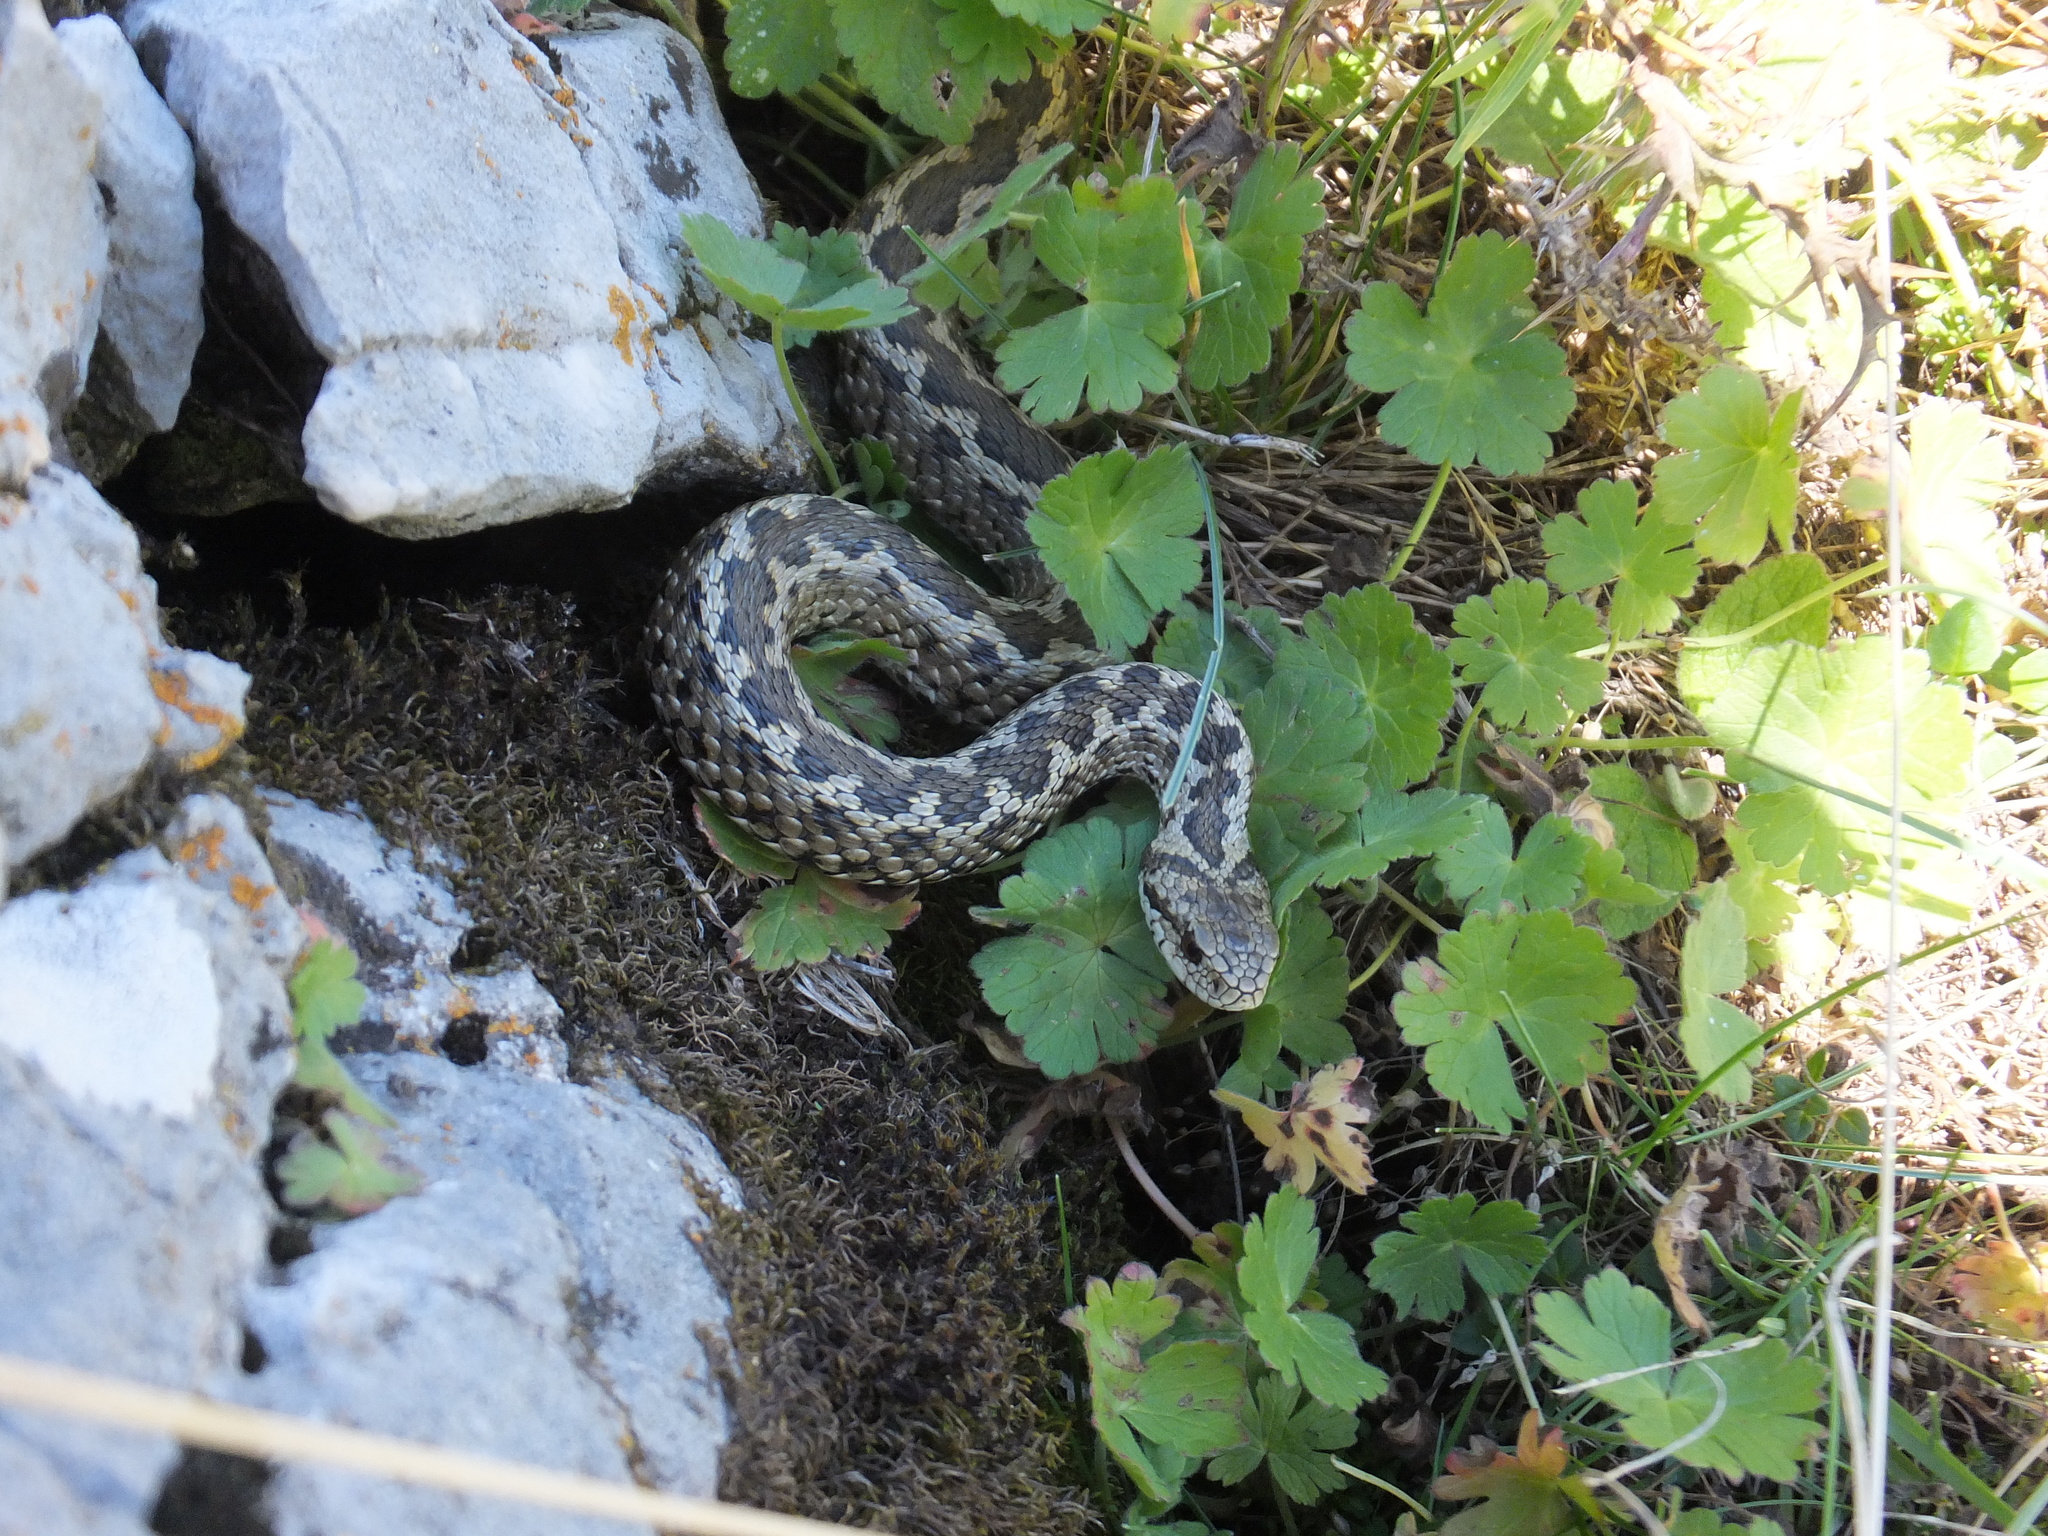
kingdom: Animalia
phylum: Chordata
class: Squamata
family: Viperidae
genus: Vipera
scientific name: Vipera ursinii
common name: Meadow viper
